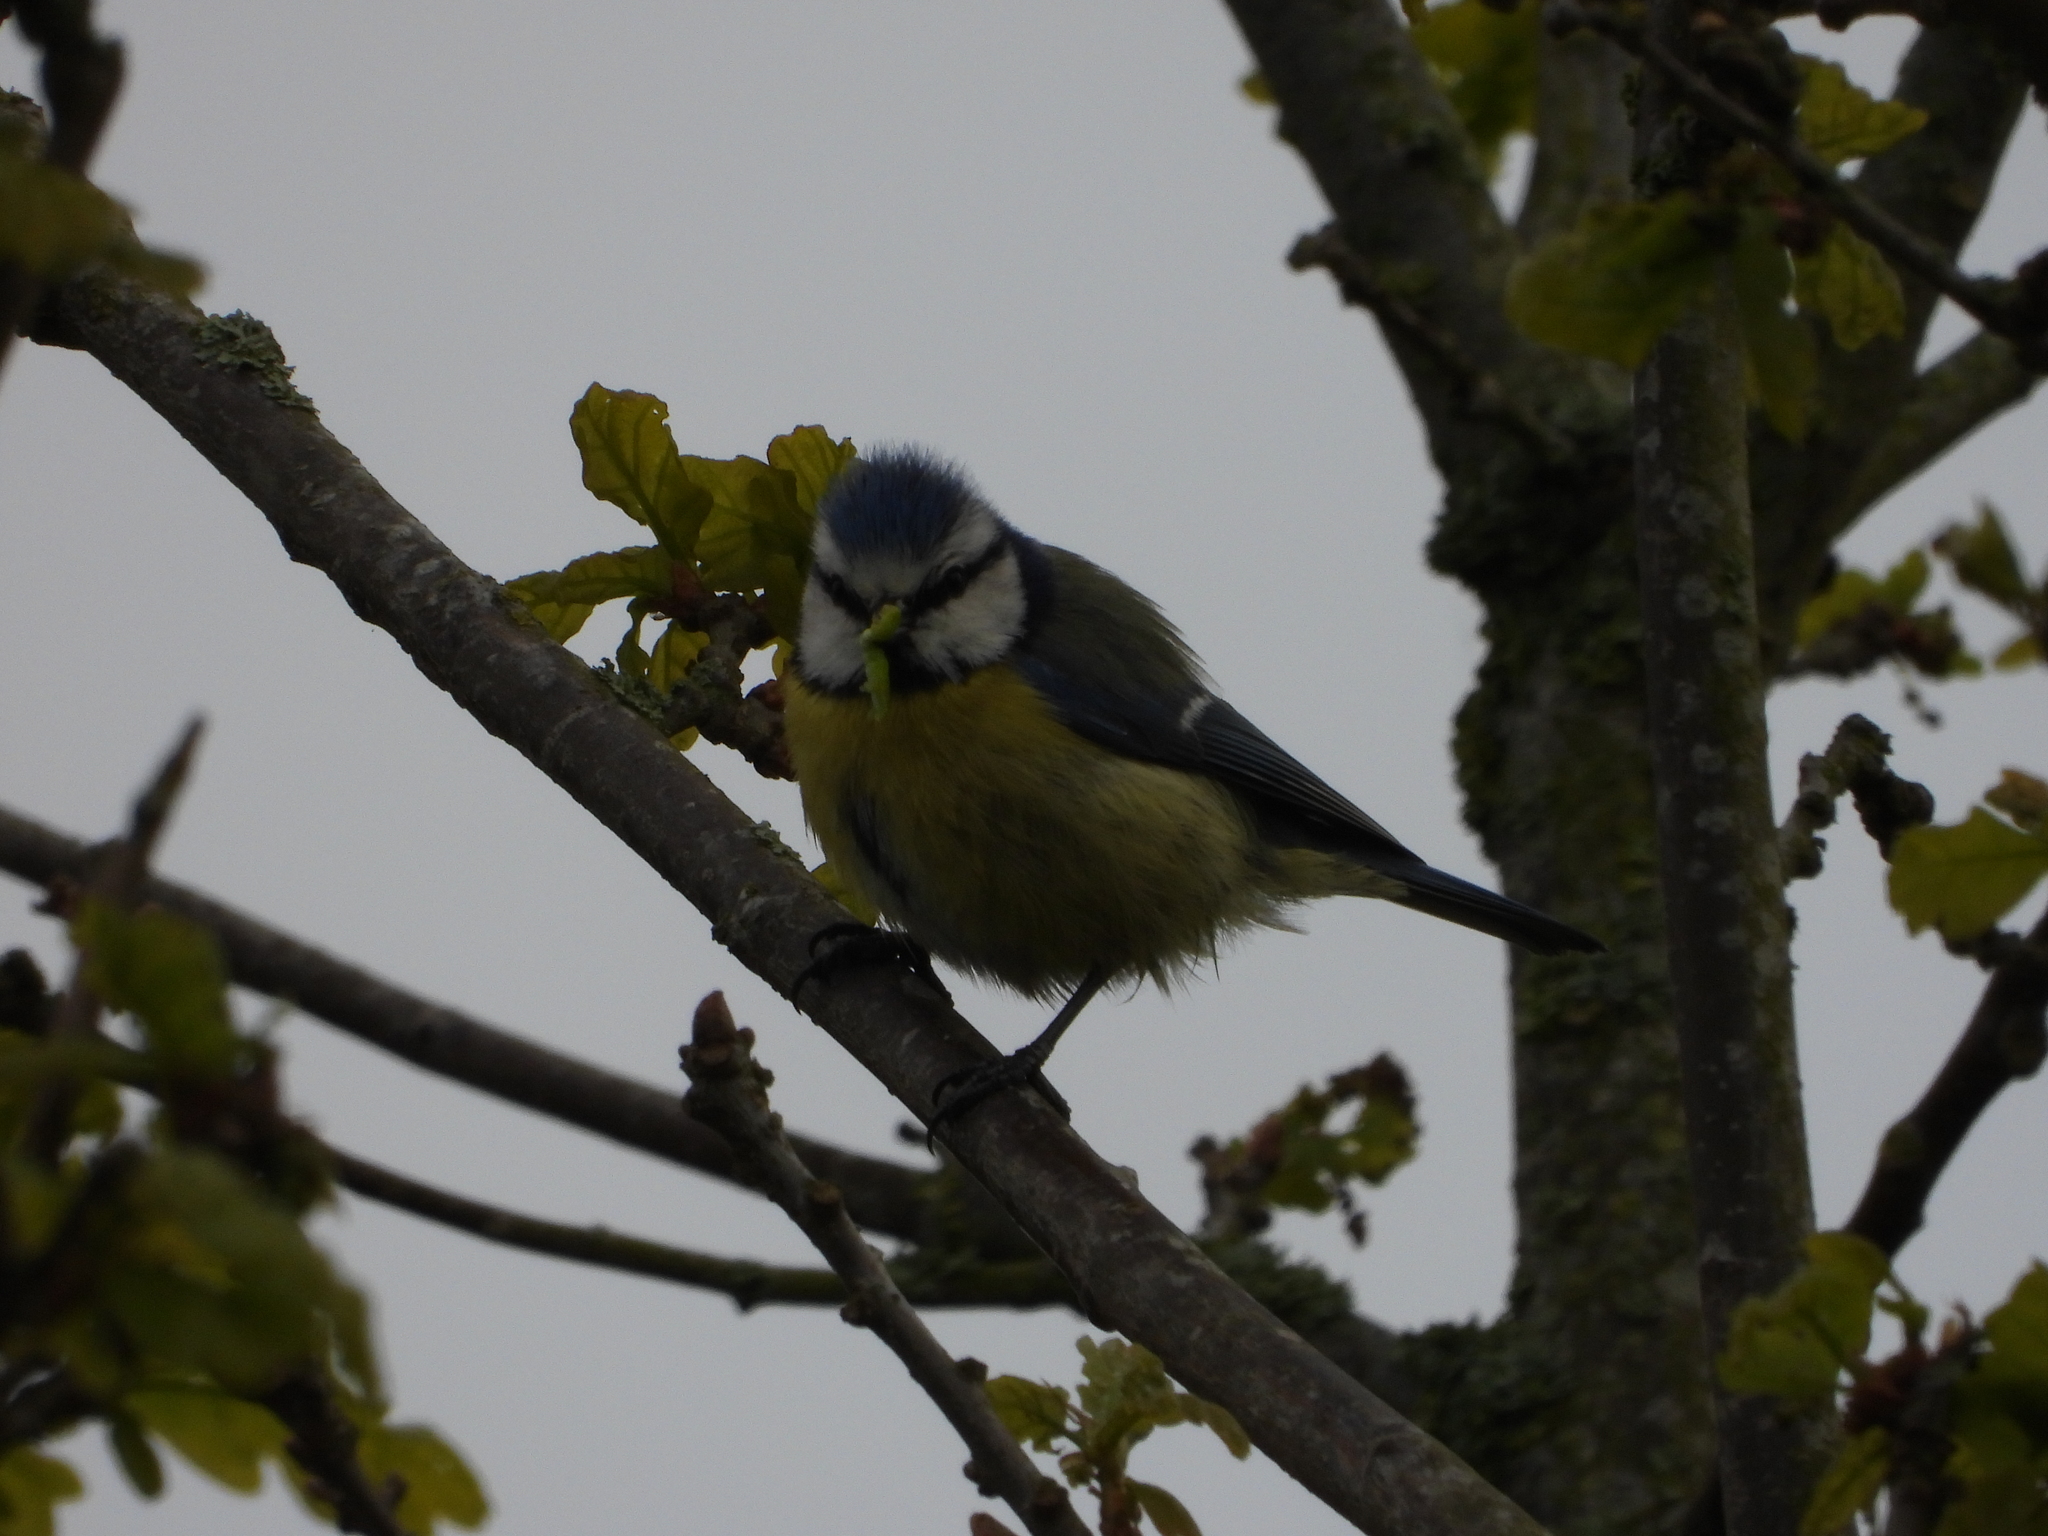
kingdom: Animalia
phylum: Chordata
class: Aves
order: Passeriformes
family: Paridae
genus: Cyanistes
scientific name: Cyanistes caeruleus
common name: Eurasian blue tit
